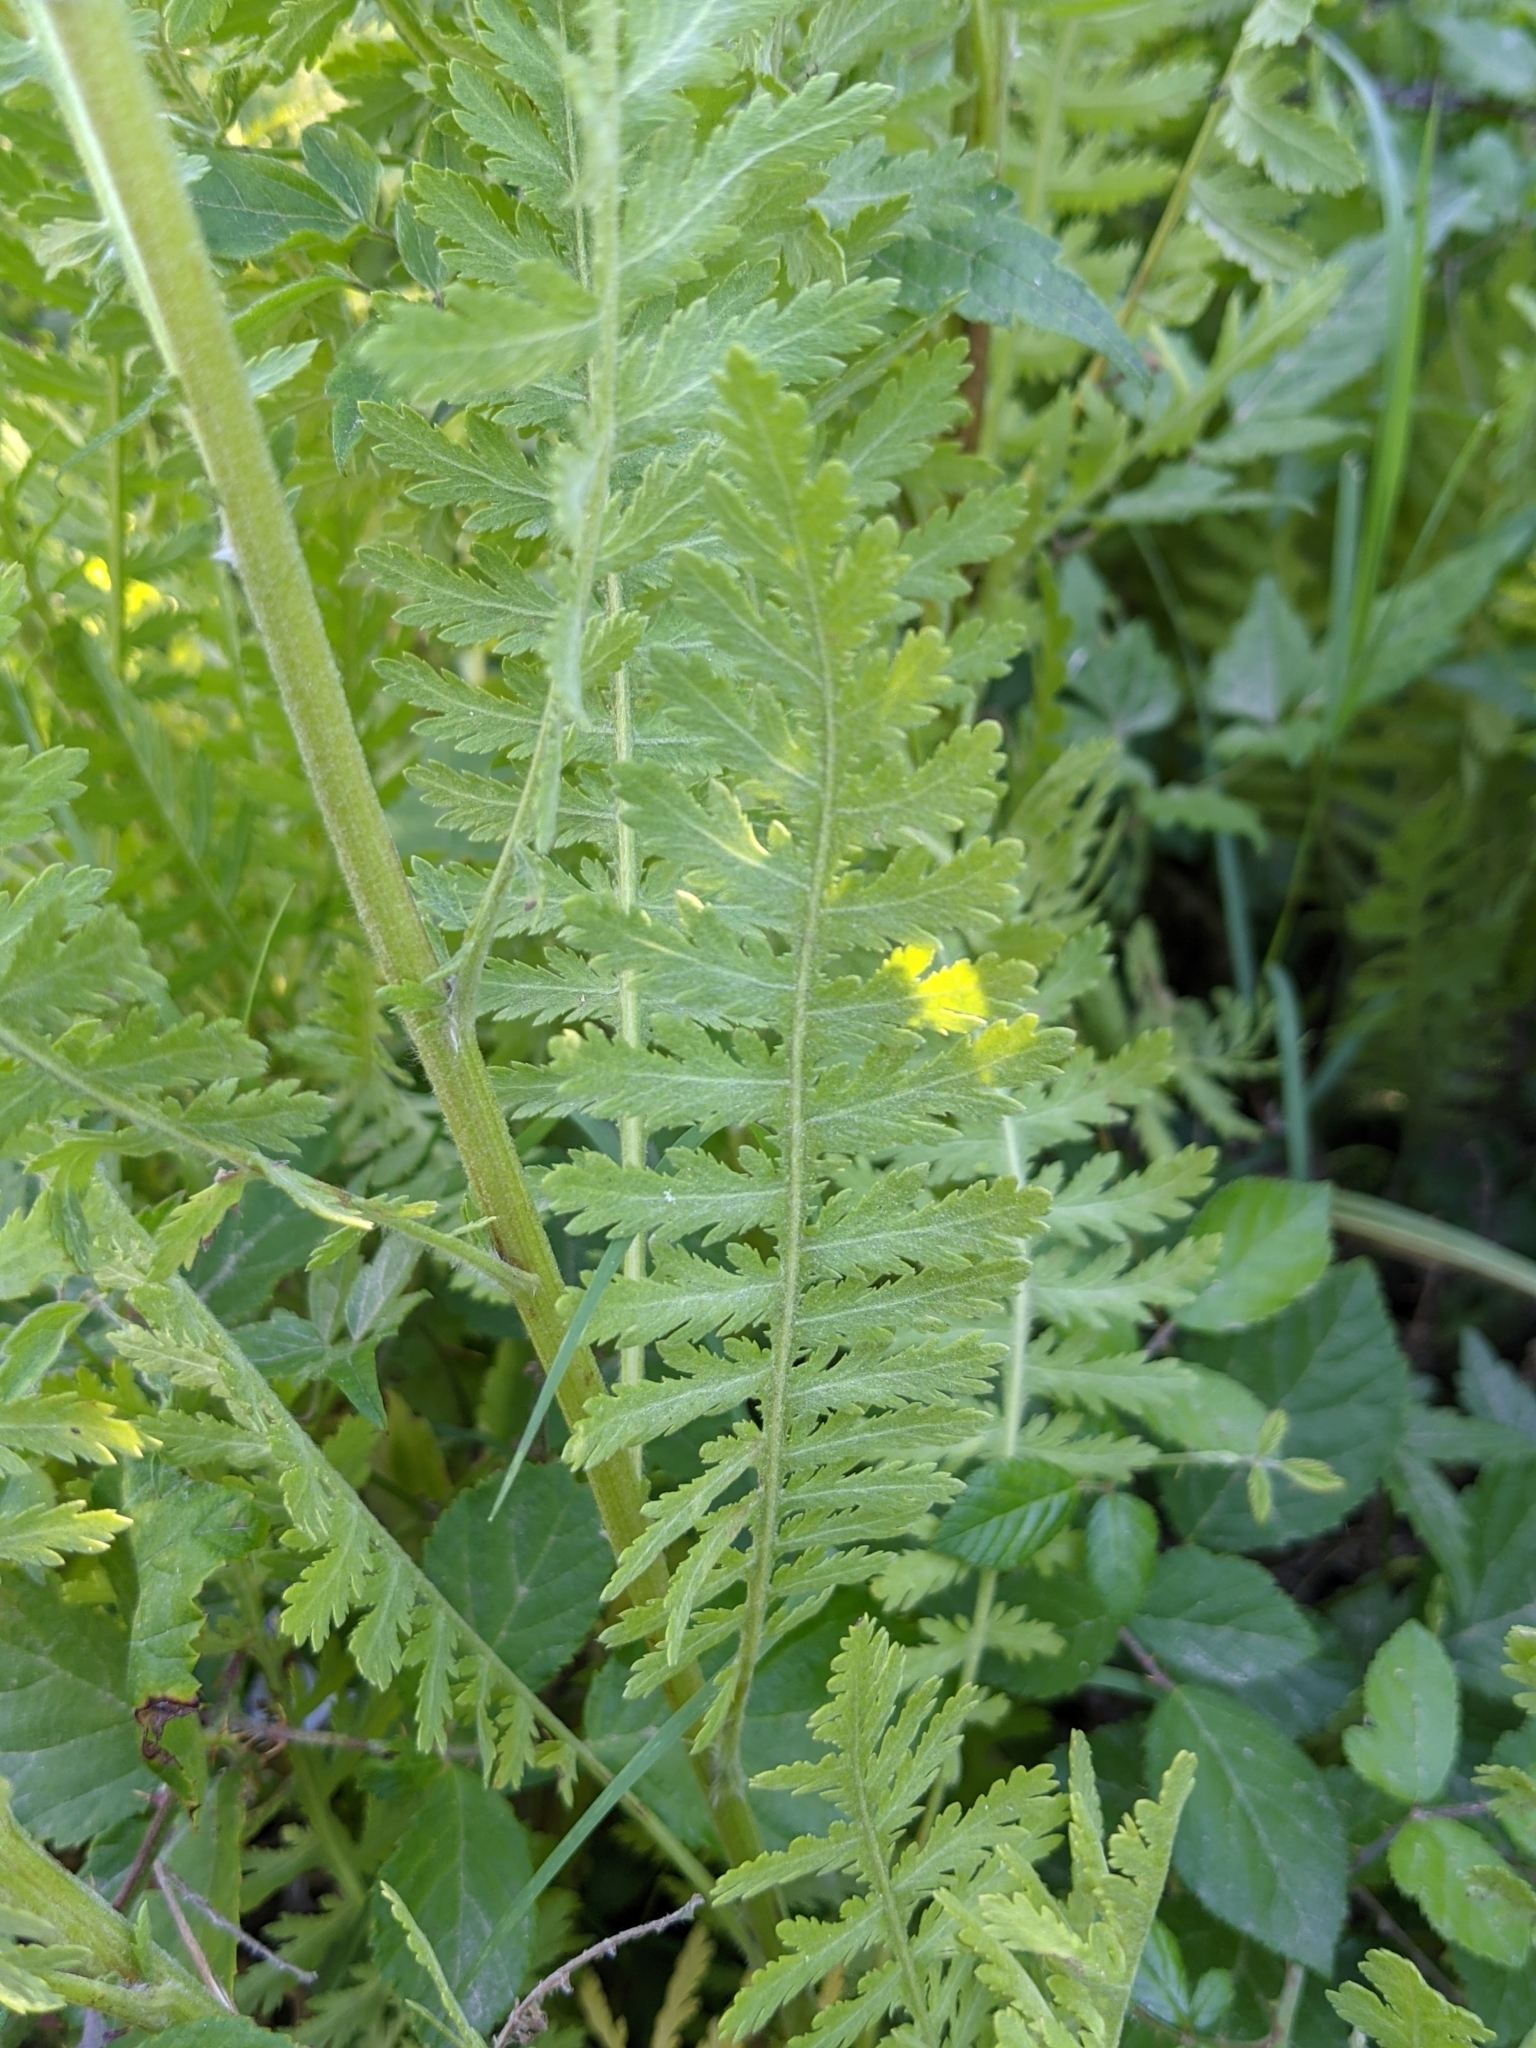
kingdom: Plantae
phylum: Tracheophyta
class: Magnoliopsida
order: Asterales
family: Asteraceae
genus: Achillea
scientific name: Achillea filipendulina
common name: Fernleaf yarrow
